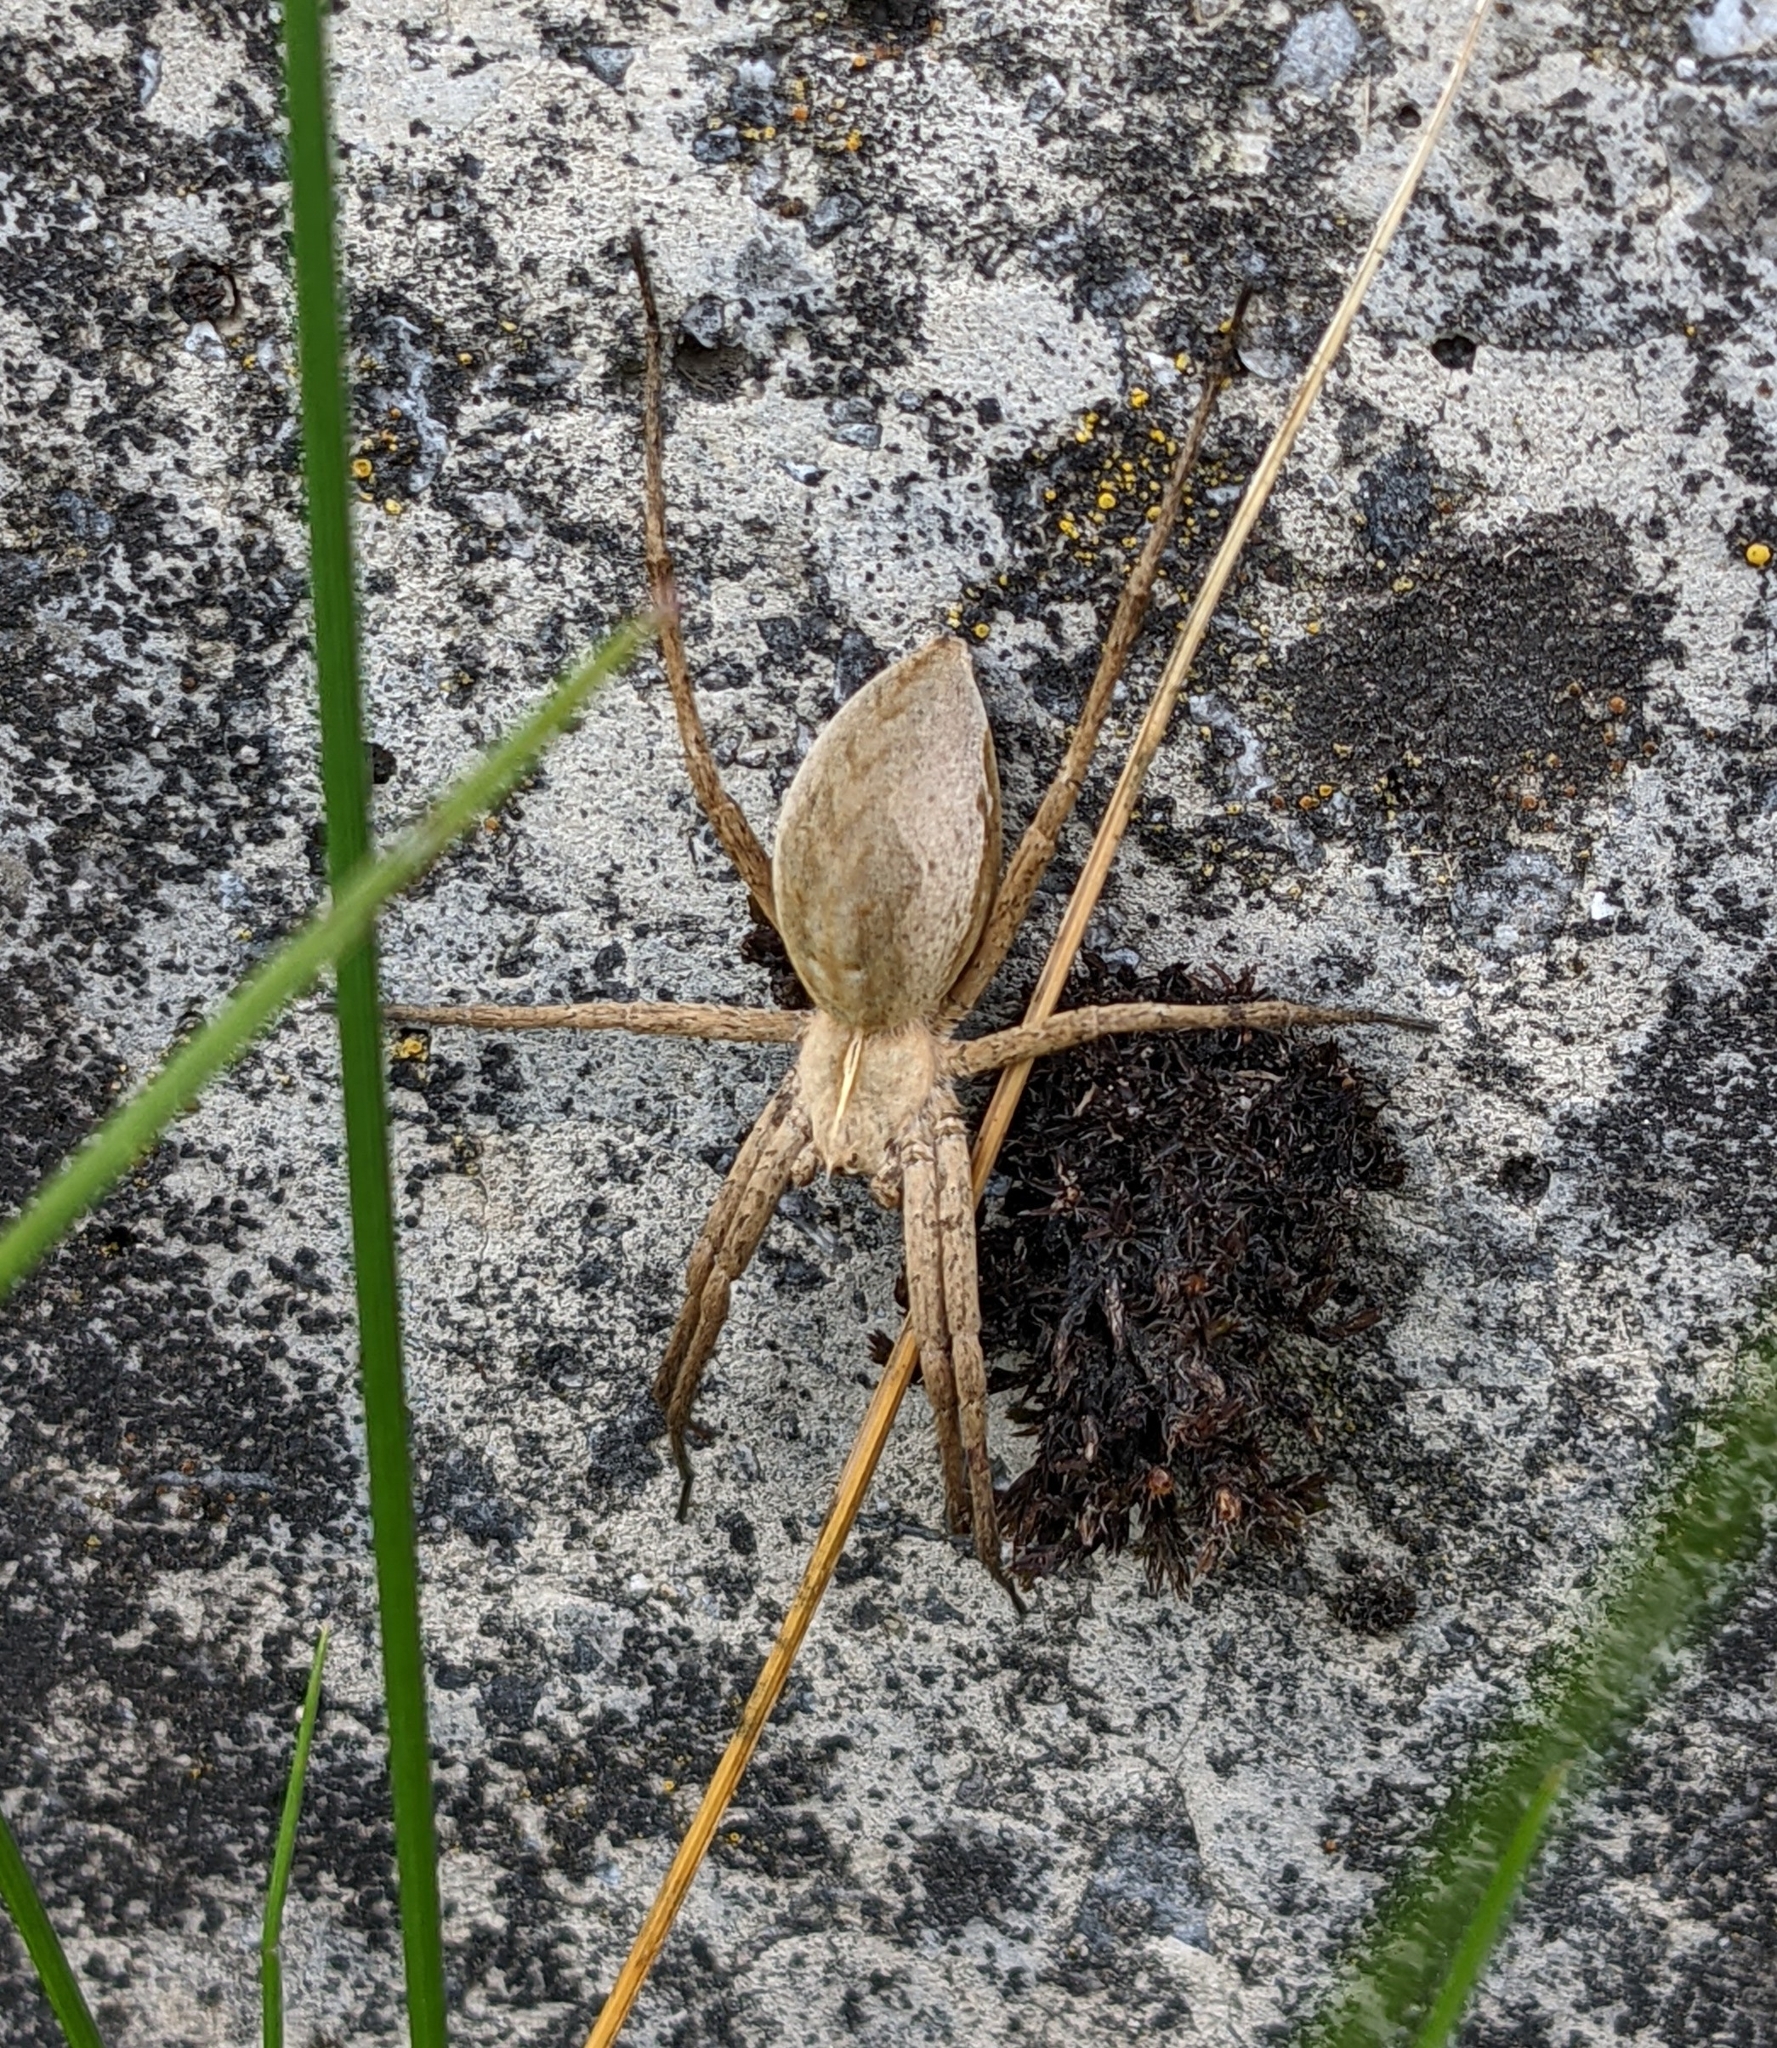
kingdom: Animalia
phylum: Arthropoda
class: Arachnida
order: Araneae
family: Pisauridae
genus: Pisaura
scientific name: Pisaura mirabilis
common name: Tent spider
